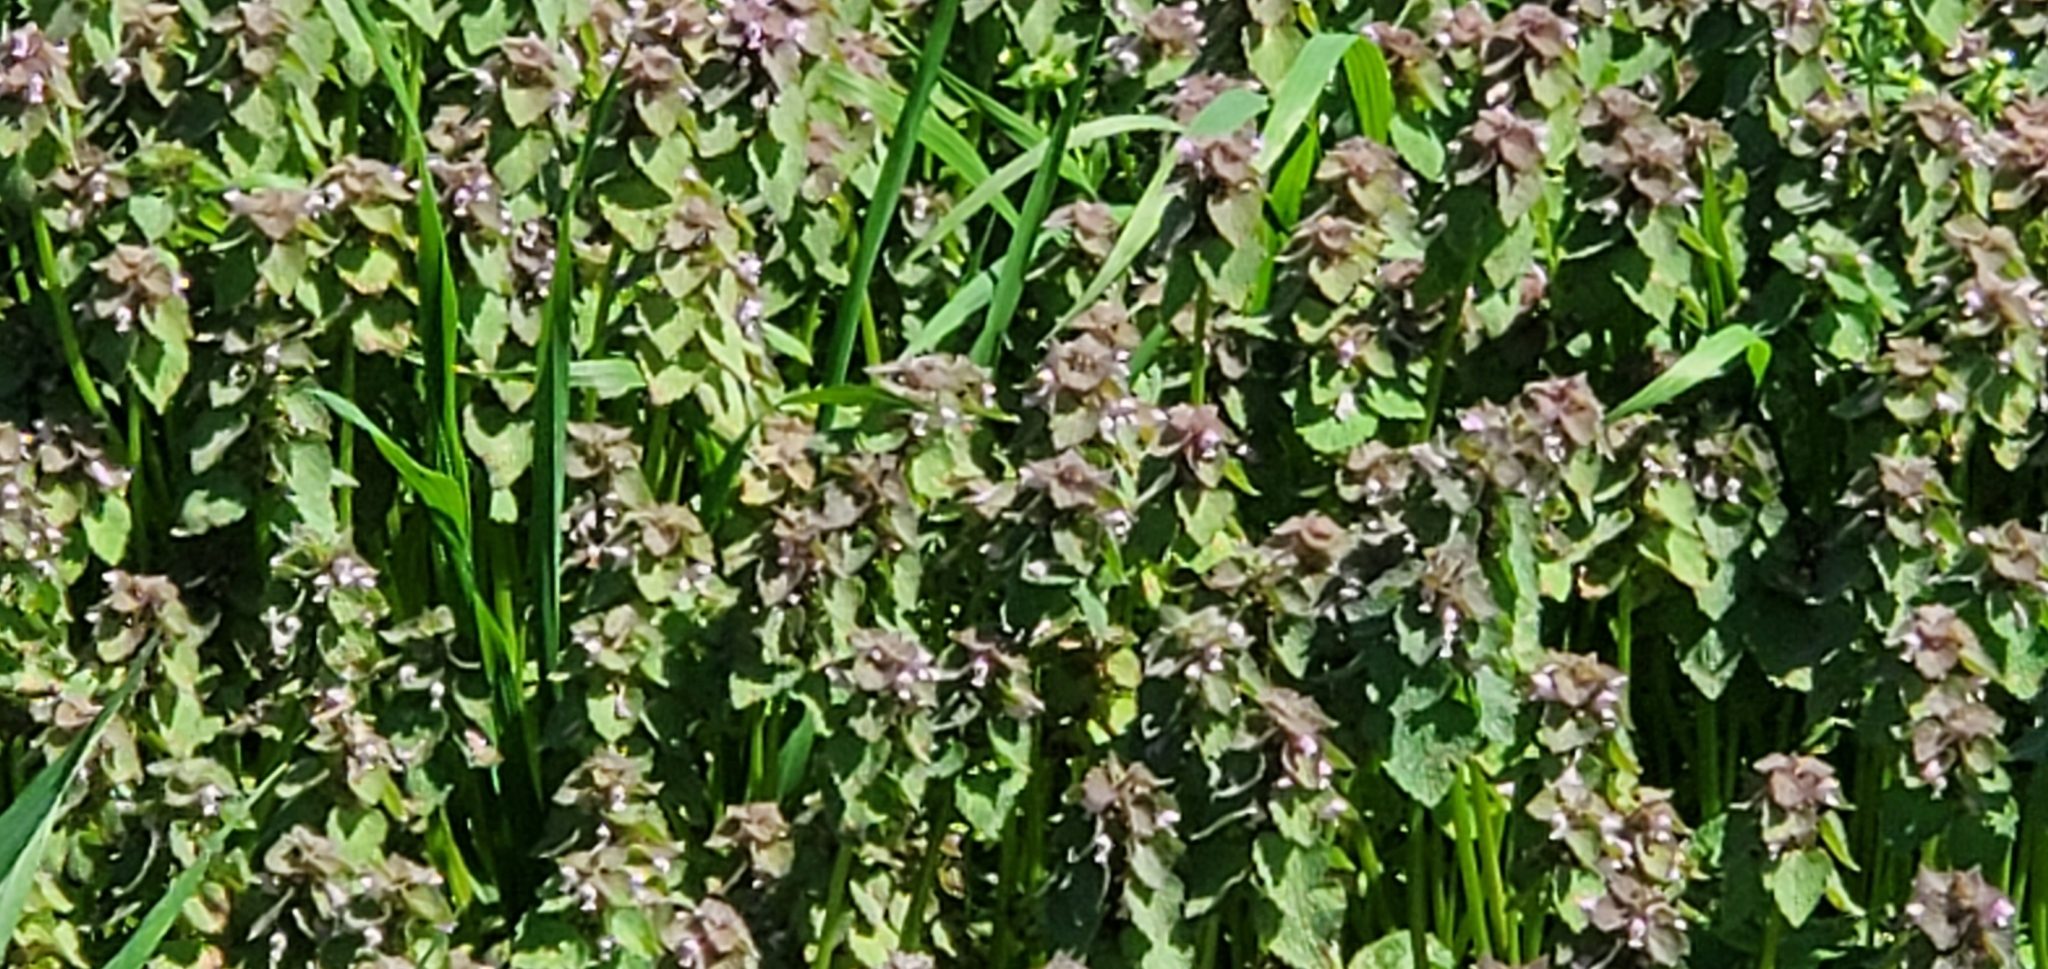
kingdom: Plantae
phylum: Tracheophyta
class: Magnoliopsida
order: Lamiales
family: Lamiaceae
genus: Lamium
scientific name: Lamium purpureum
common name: Red dead-nettle
